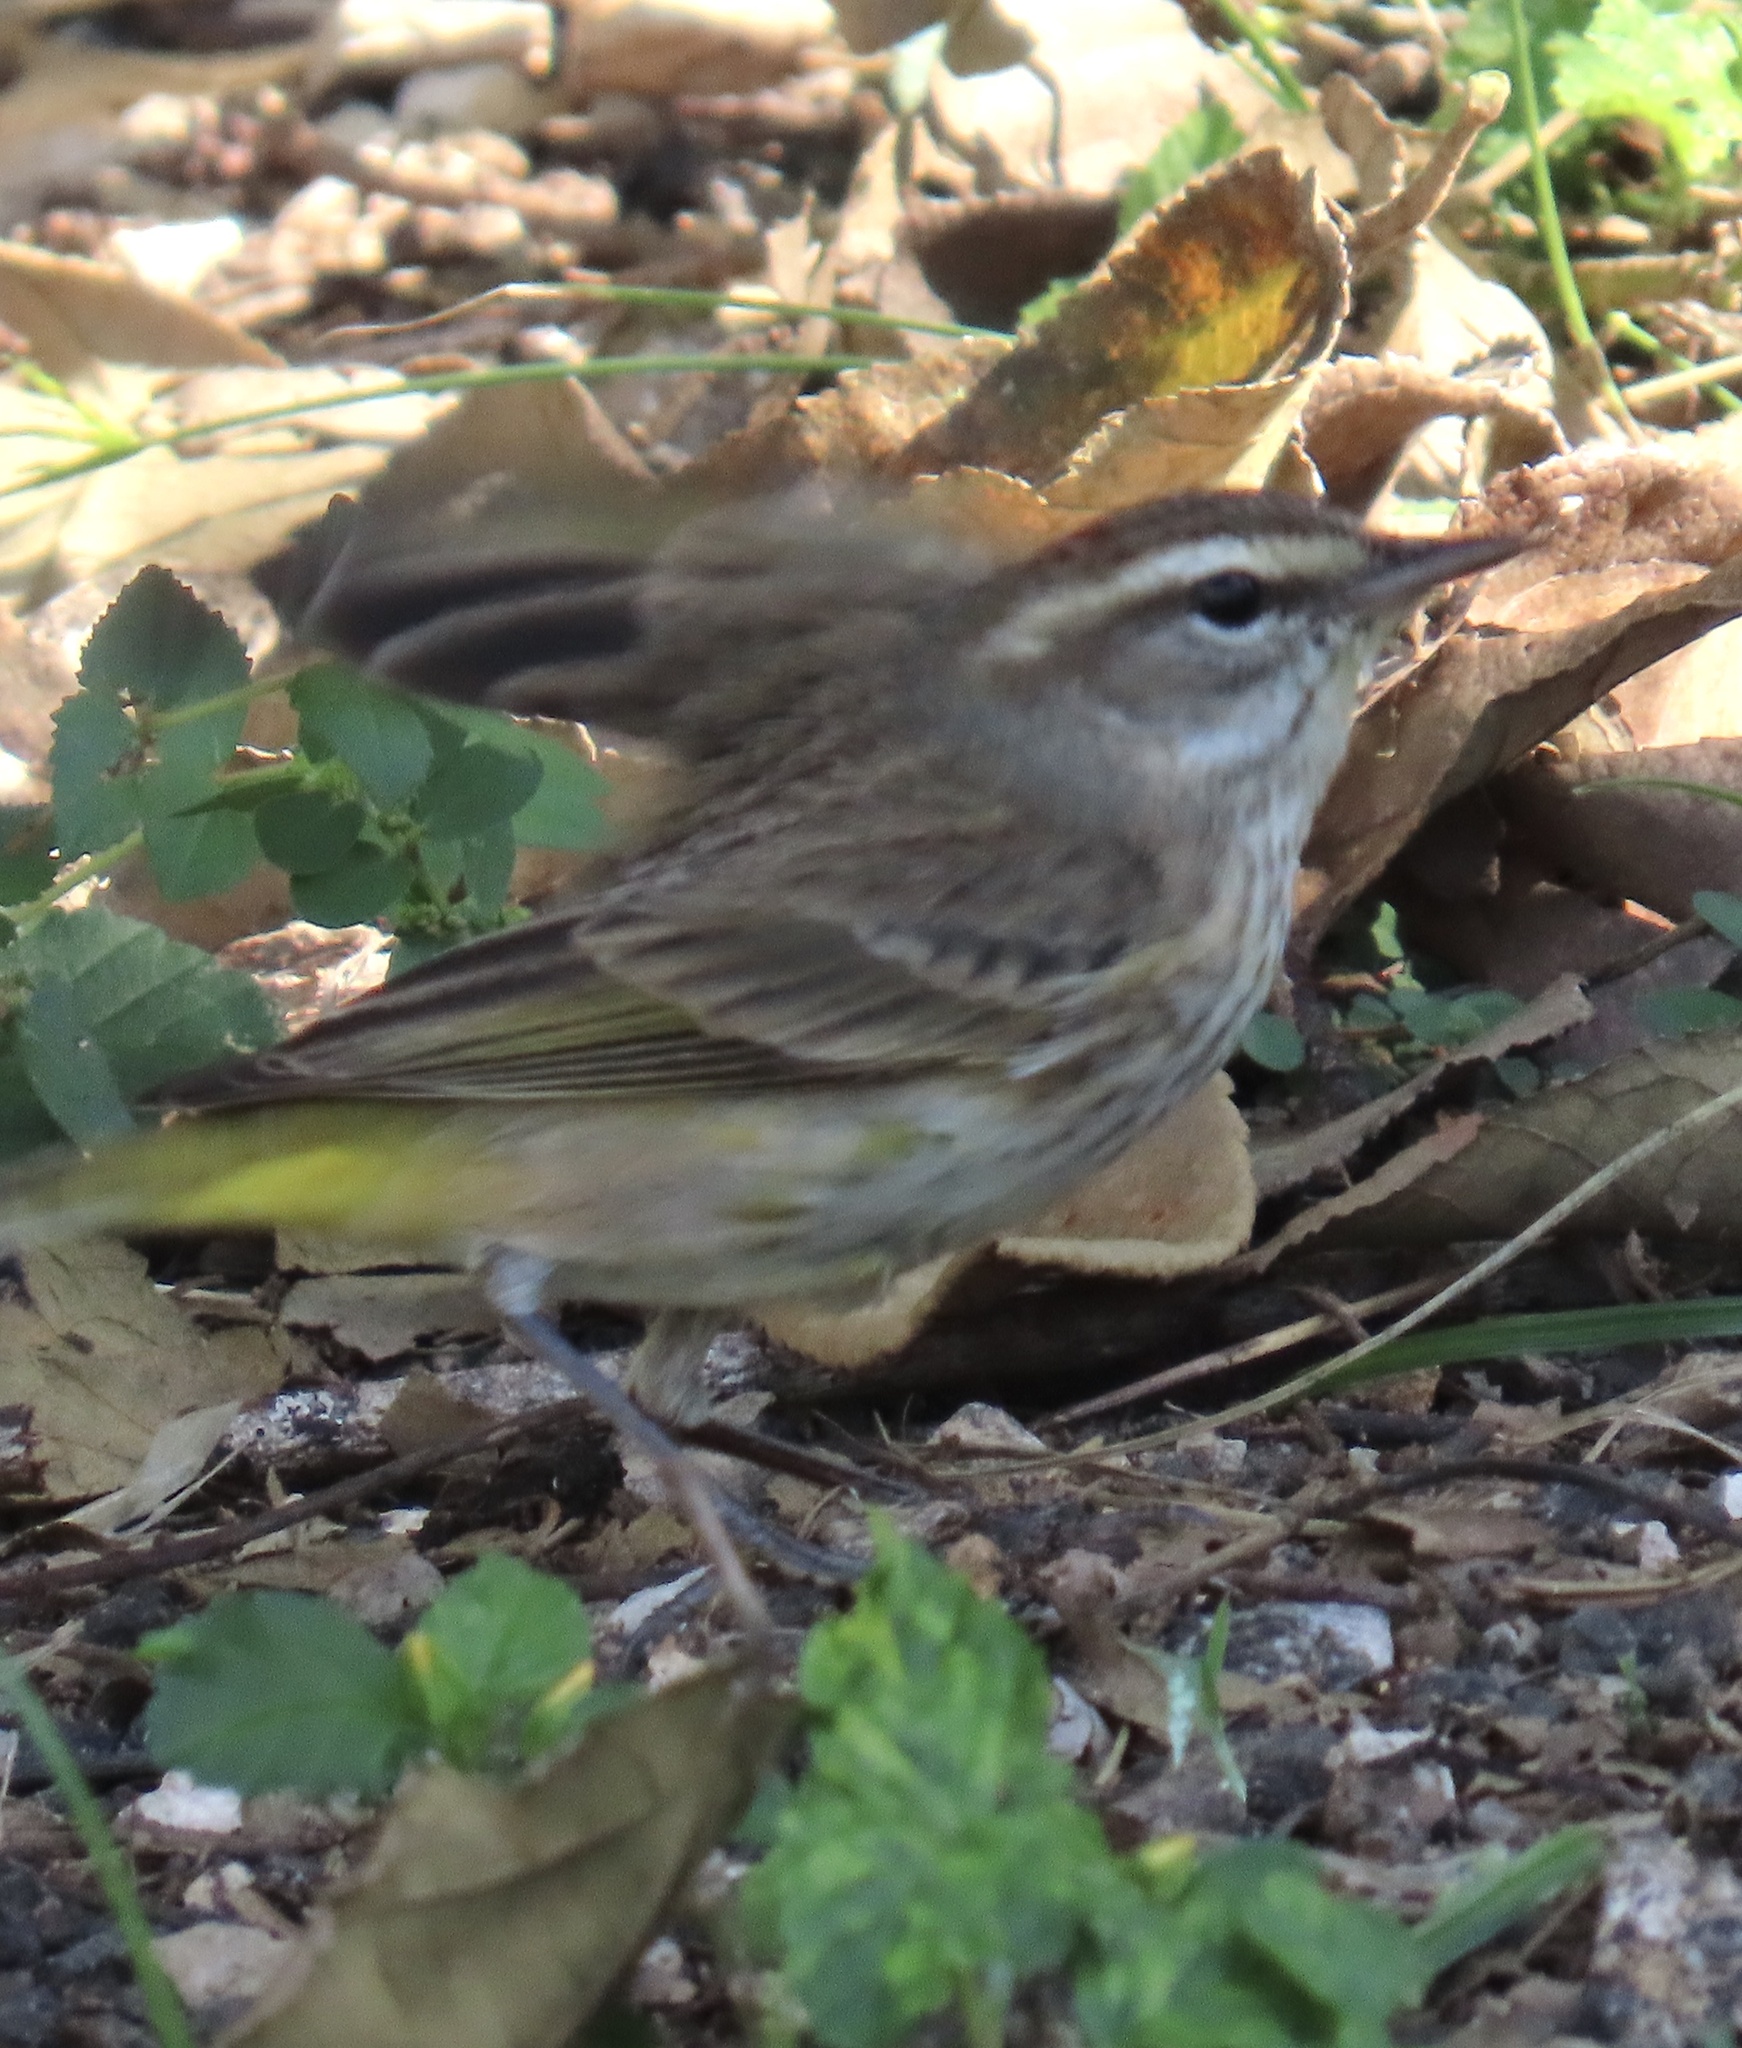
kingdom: Animalia
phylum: Chordata
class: Aves
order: Passeriformes
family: Parulidae
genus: Setophaga
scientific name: Setophaga palmarum
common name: Palm warbler
